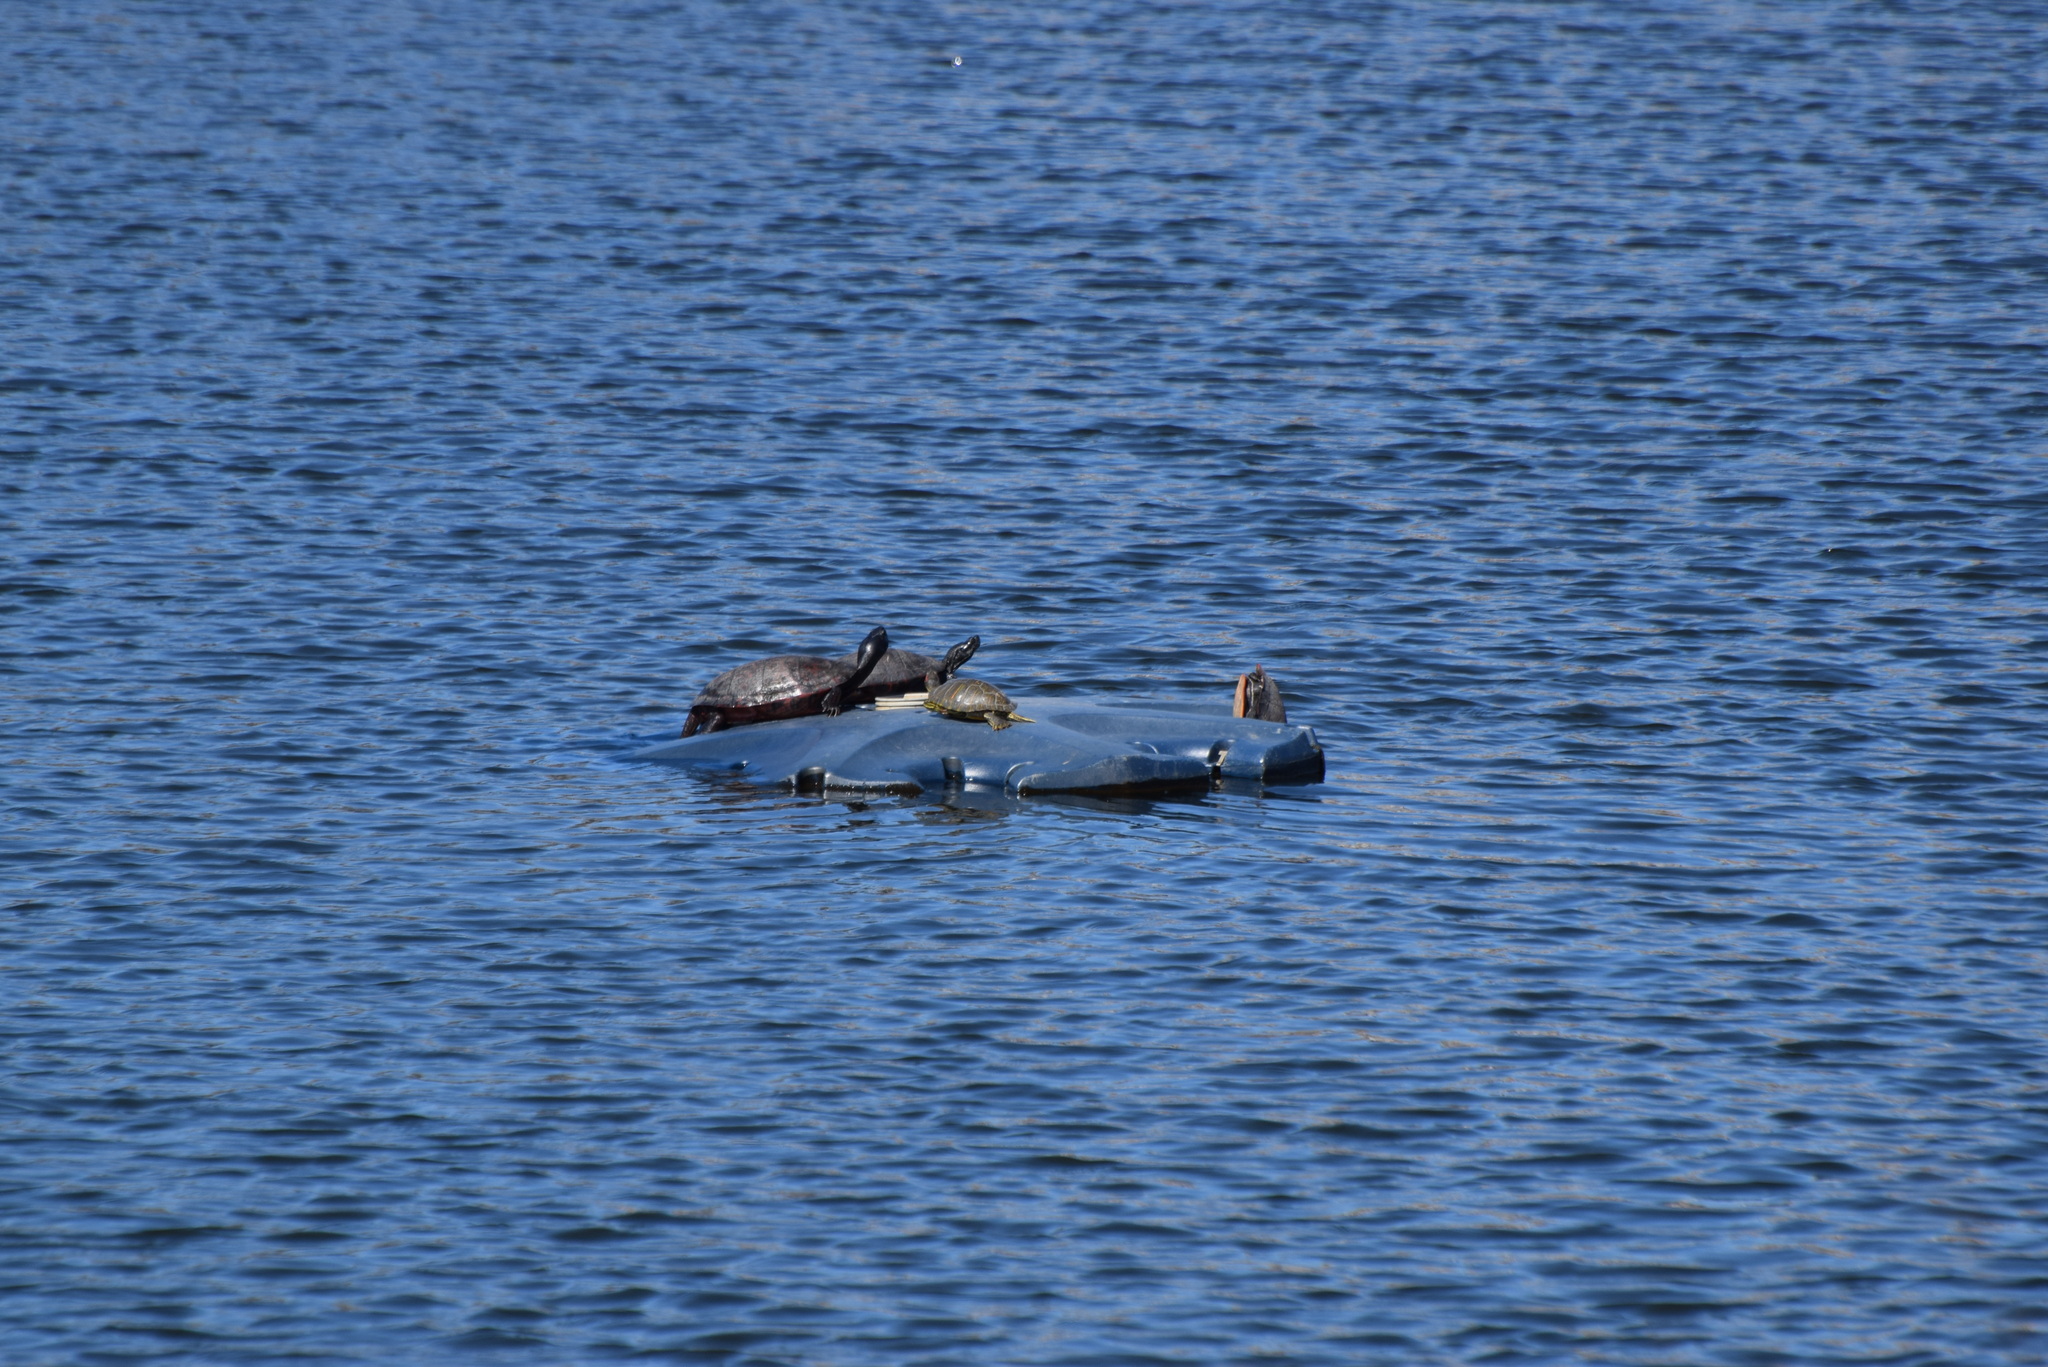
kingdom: Animalia
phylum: Chordata
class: Testudines
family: Emydidae
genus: Pseudemys
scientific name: Pseudemys rubriventris
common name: American red-bellied turtle
